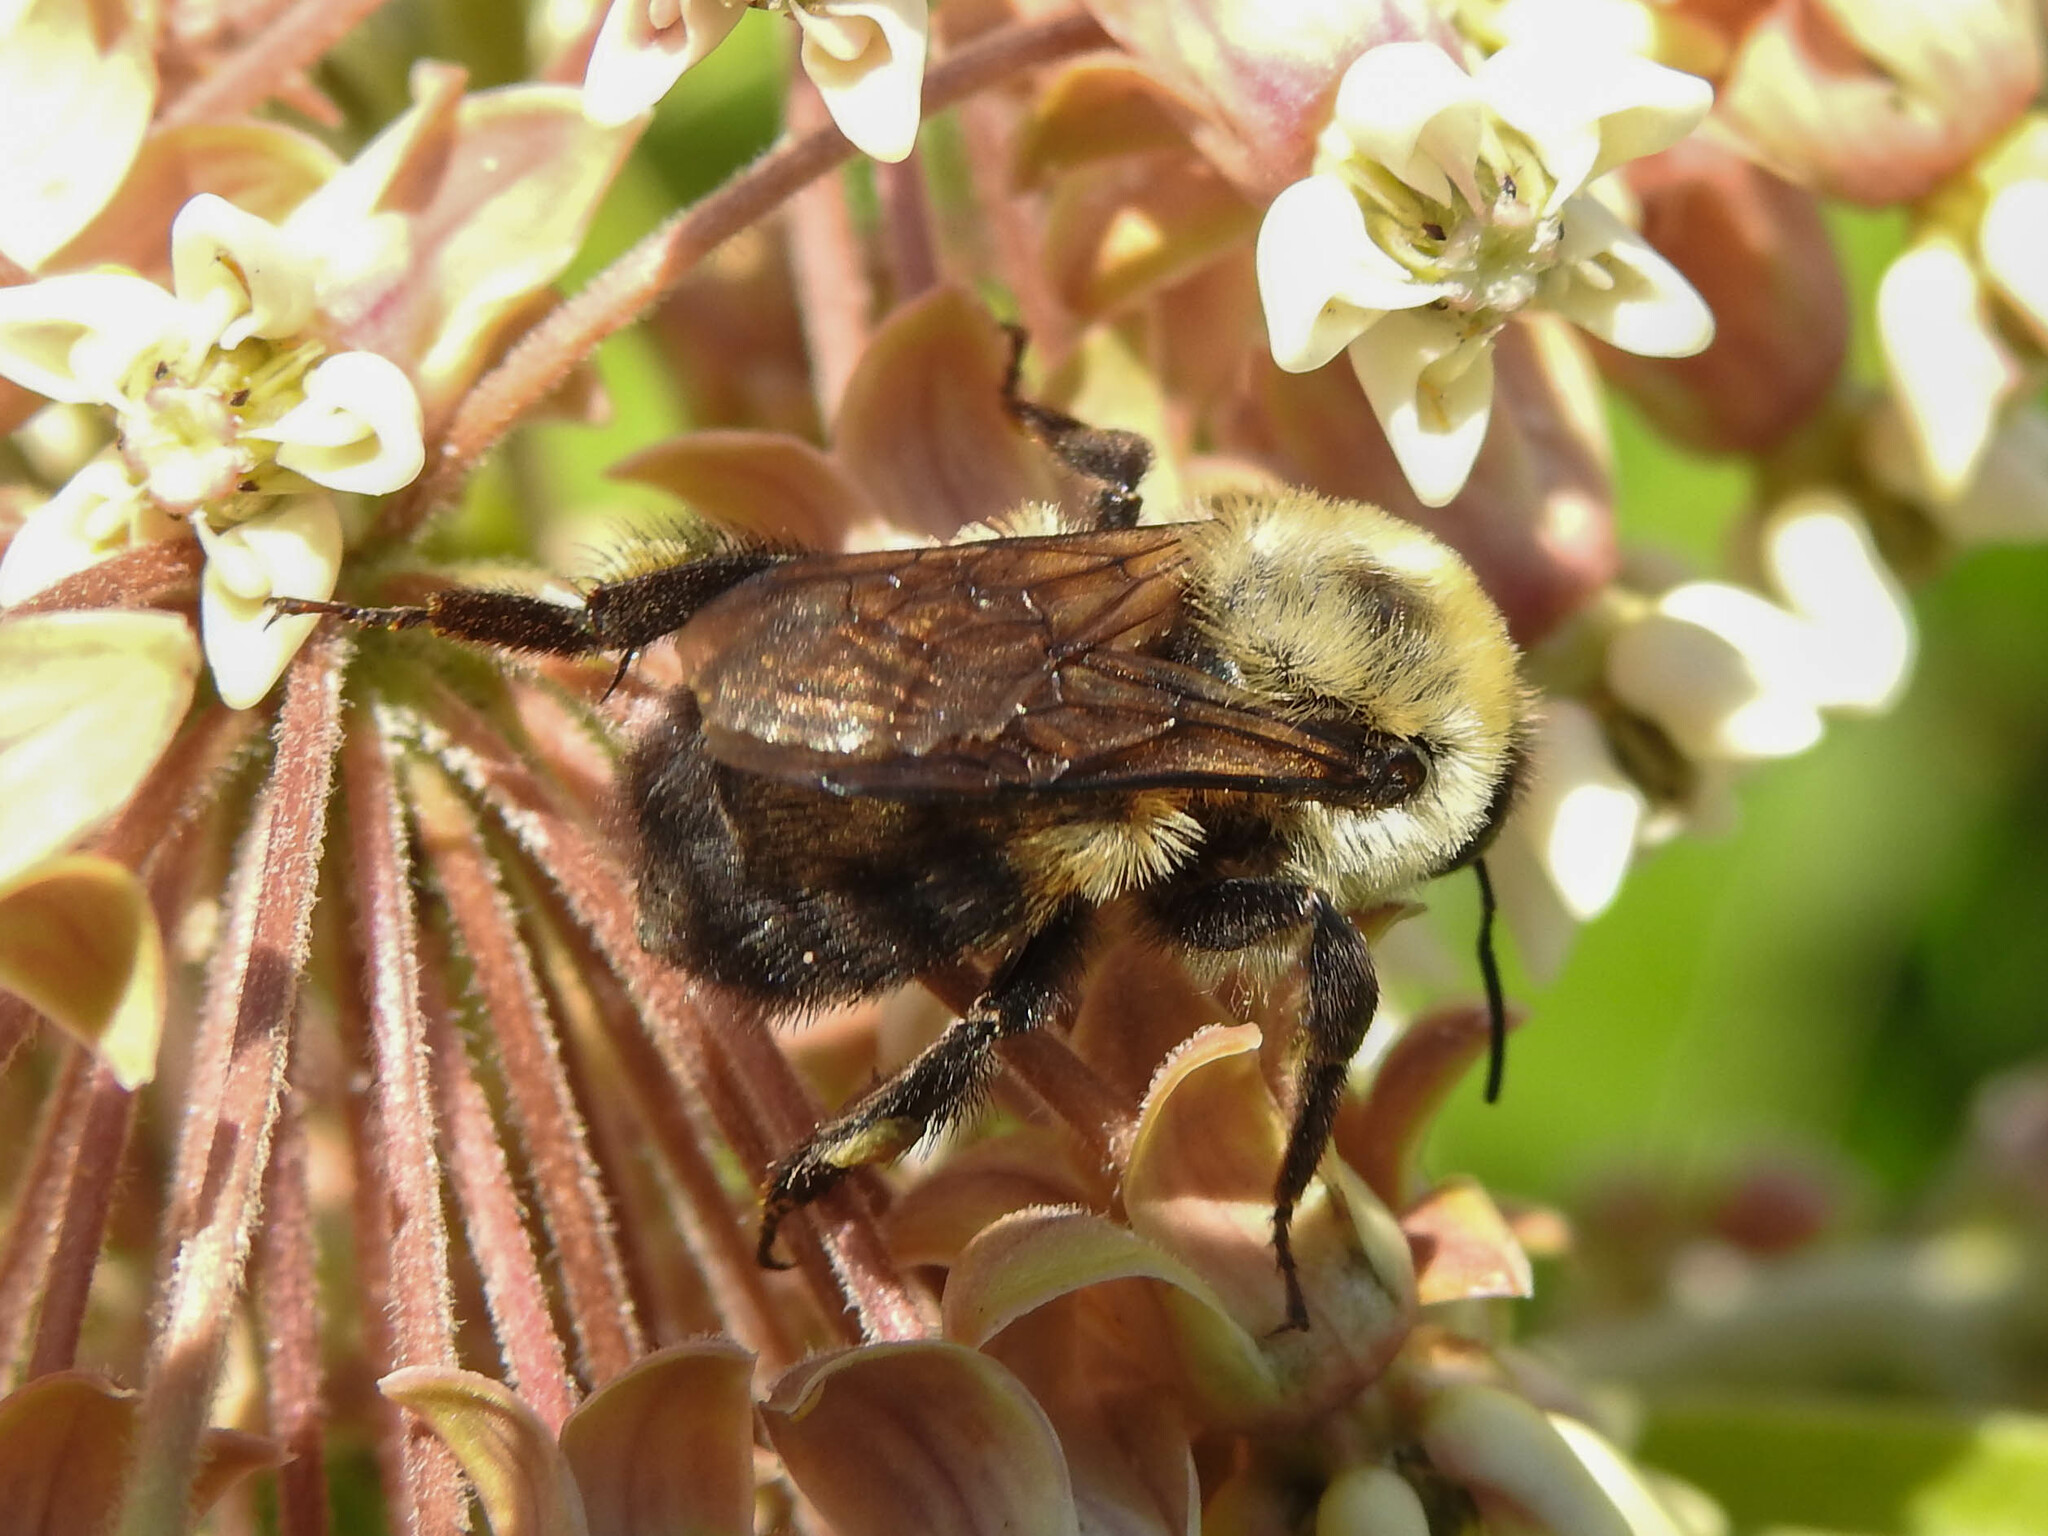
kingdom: Animalia
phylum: Arthropoda
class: Insecta
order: Hymenoptera
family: Apidae
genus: Bombus
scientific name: Bombus griseocollis
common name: Brown-belted bumble bee
